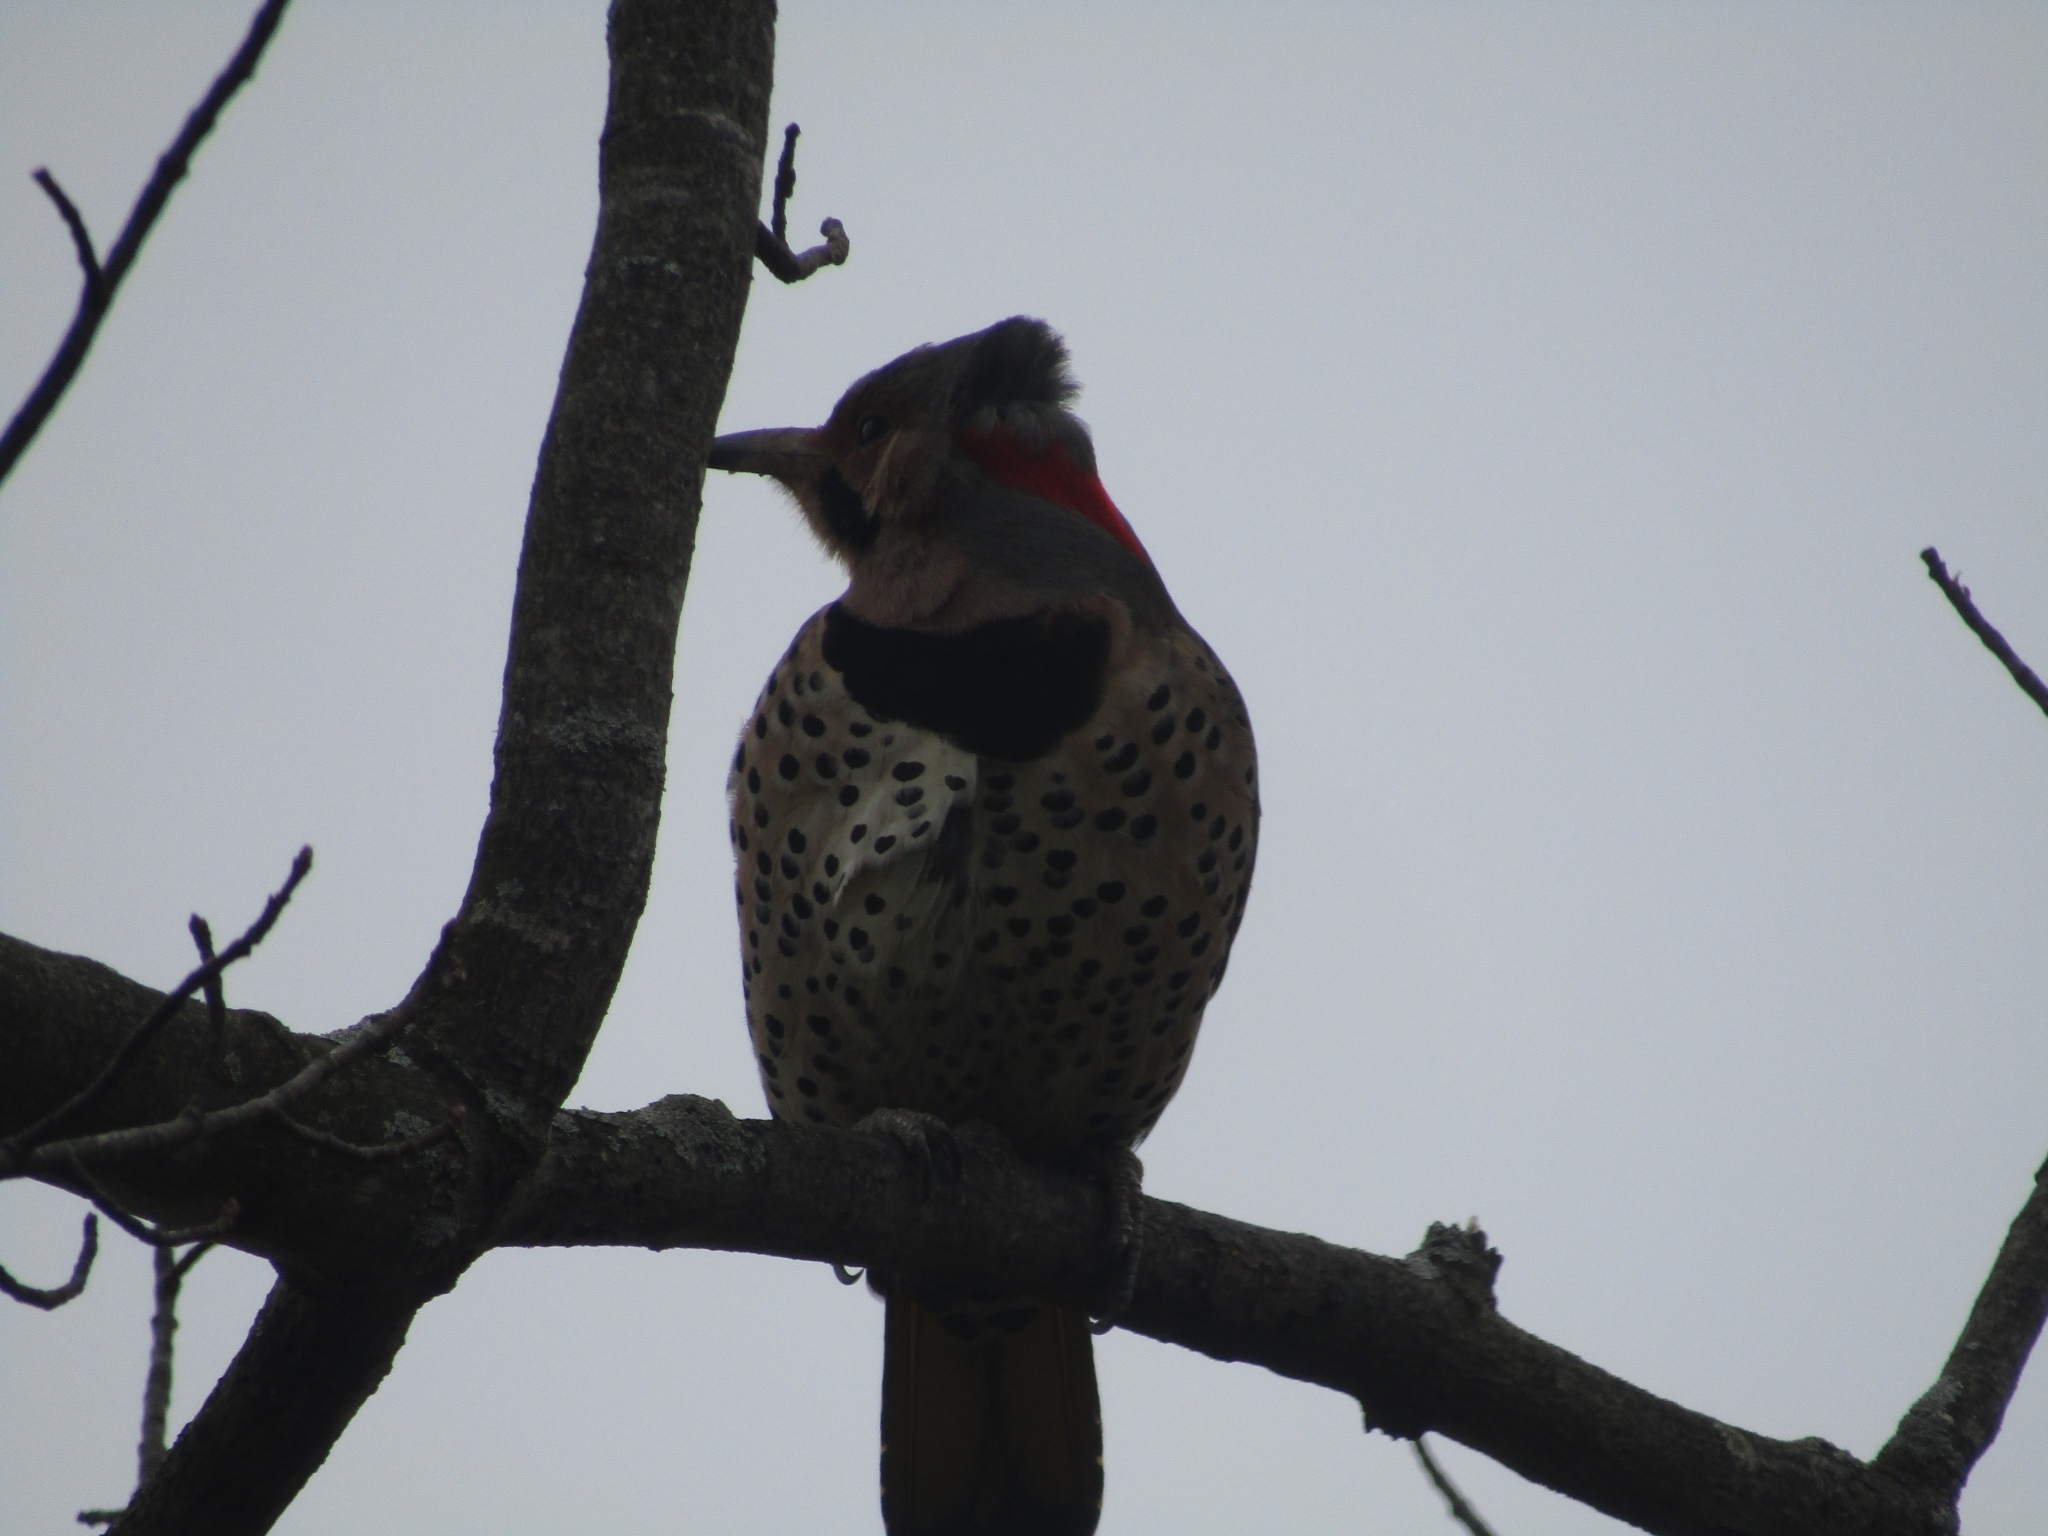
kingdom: Animalia
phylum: Chordata
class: Aves
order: Piciformes
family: Picidae
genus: Colaptes
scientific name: Colaptes auratus
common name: Northern flicker
